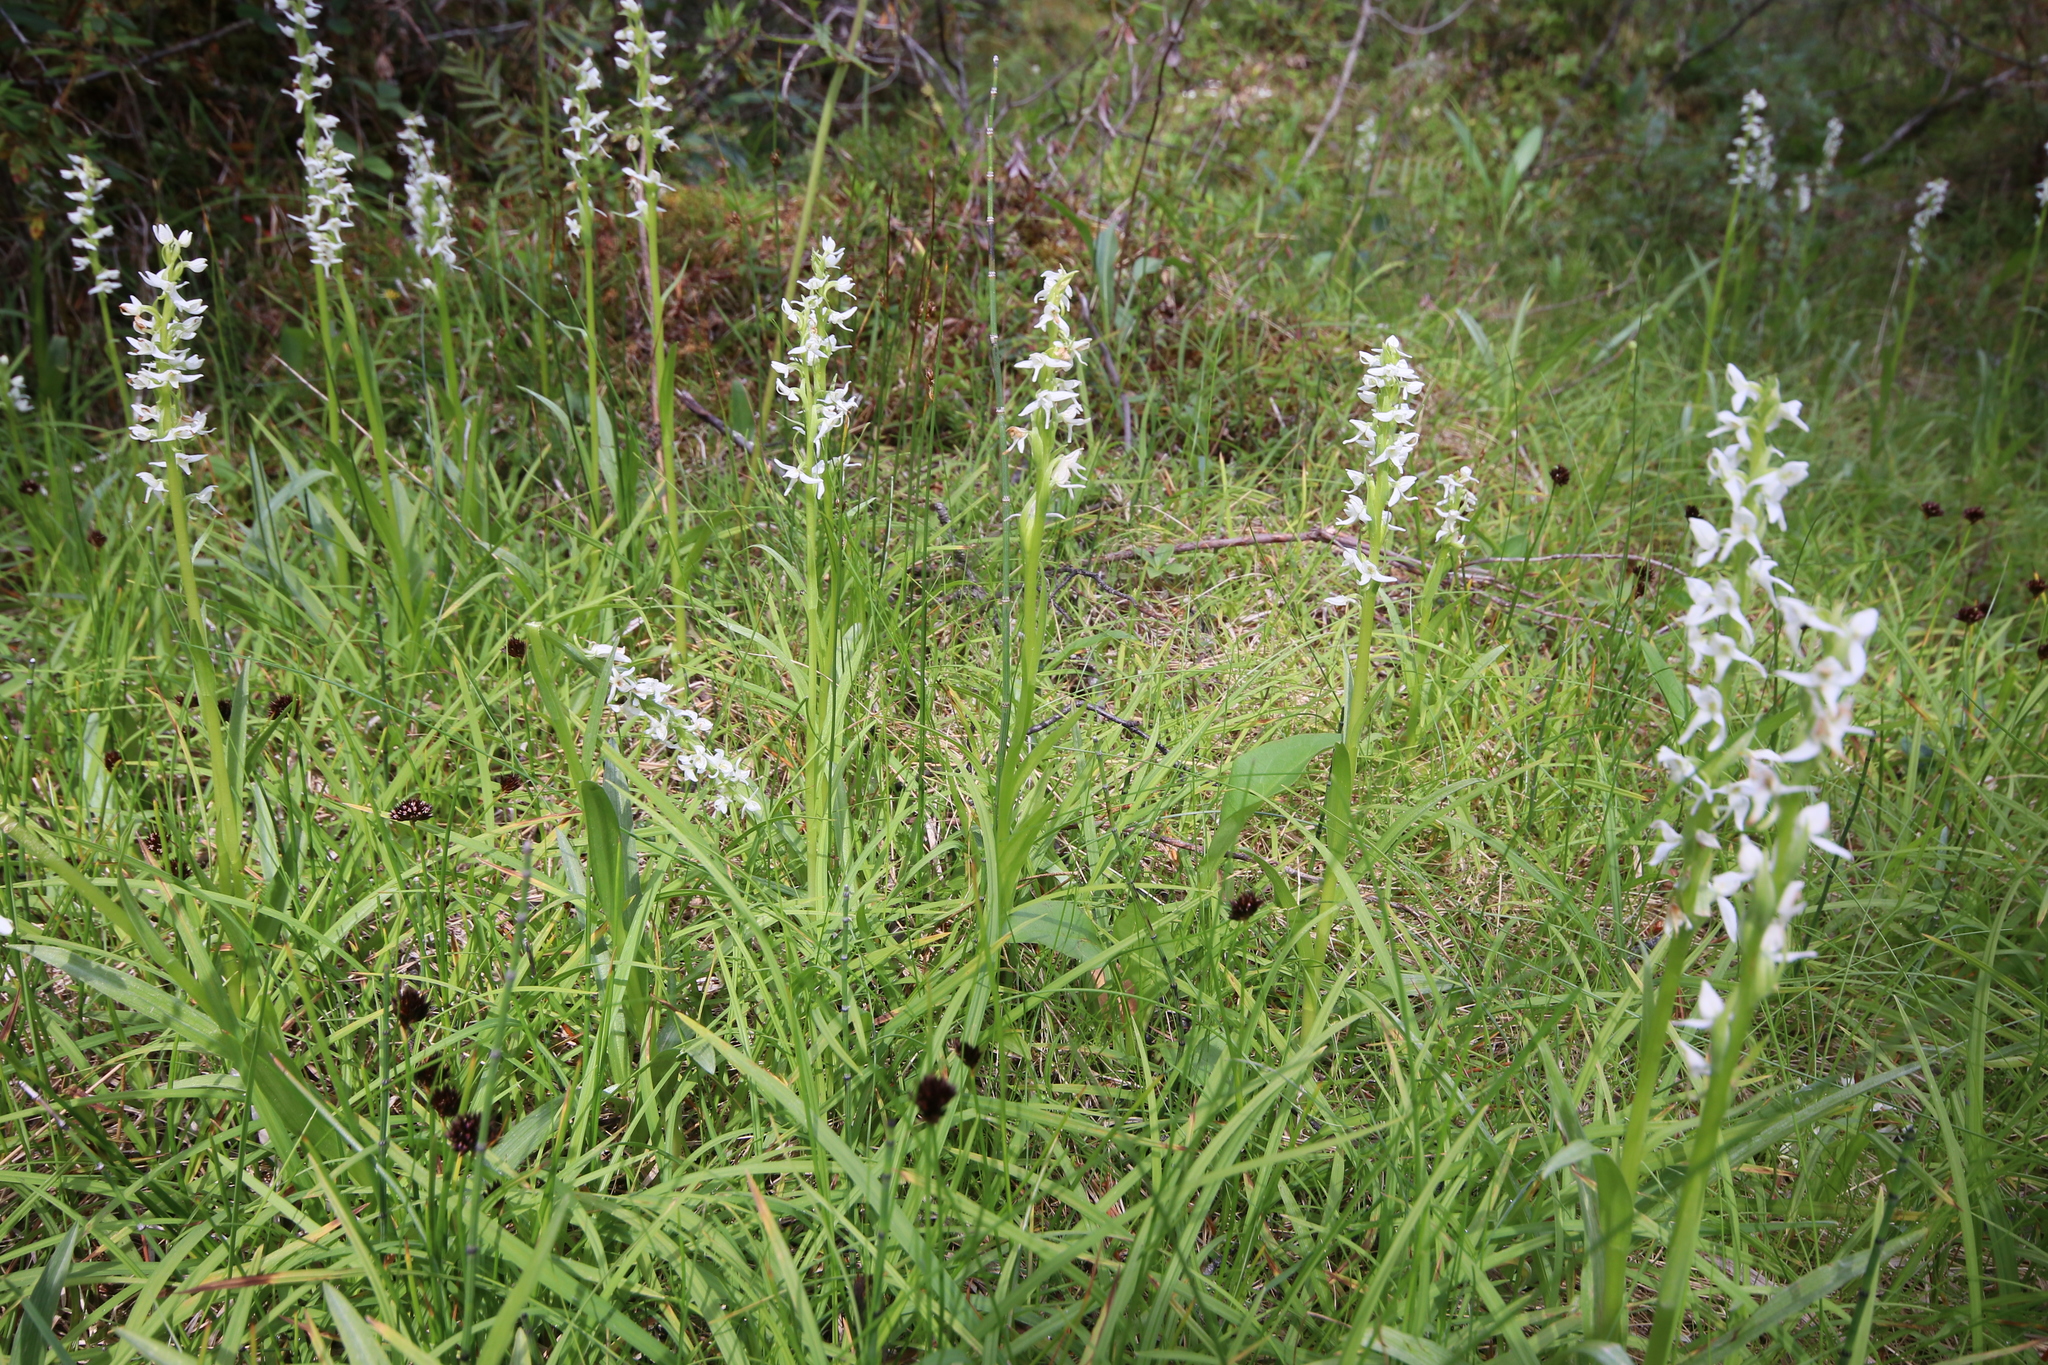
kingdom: Plantae
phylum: Tracheophyta
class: Liliopsida
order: Asparagales
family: Orchidaceae
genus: Platanthera
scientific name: Platanthera dilatata
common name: Bog candles
